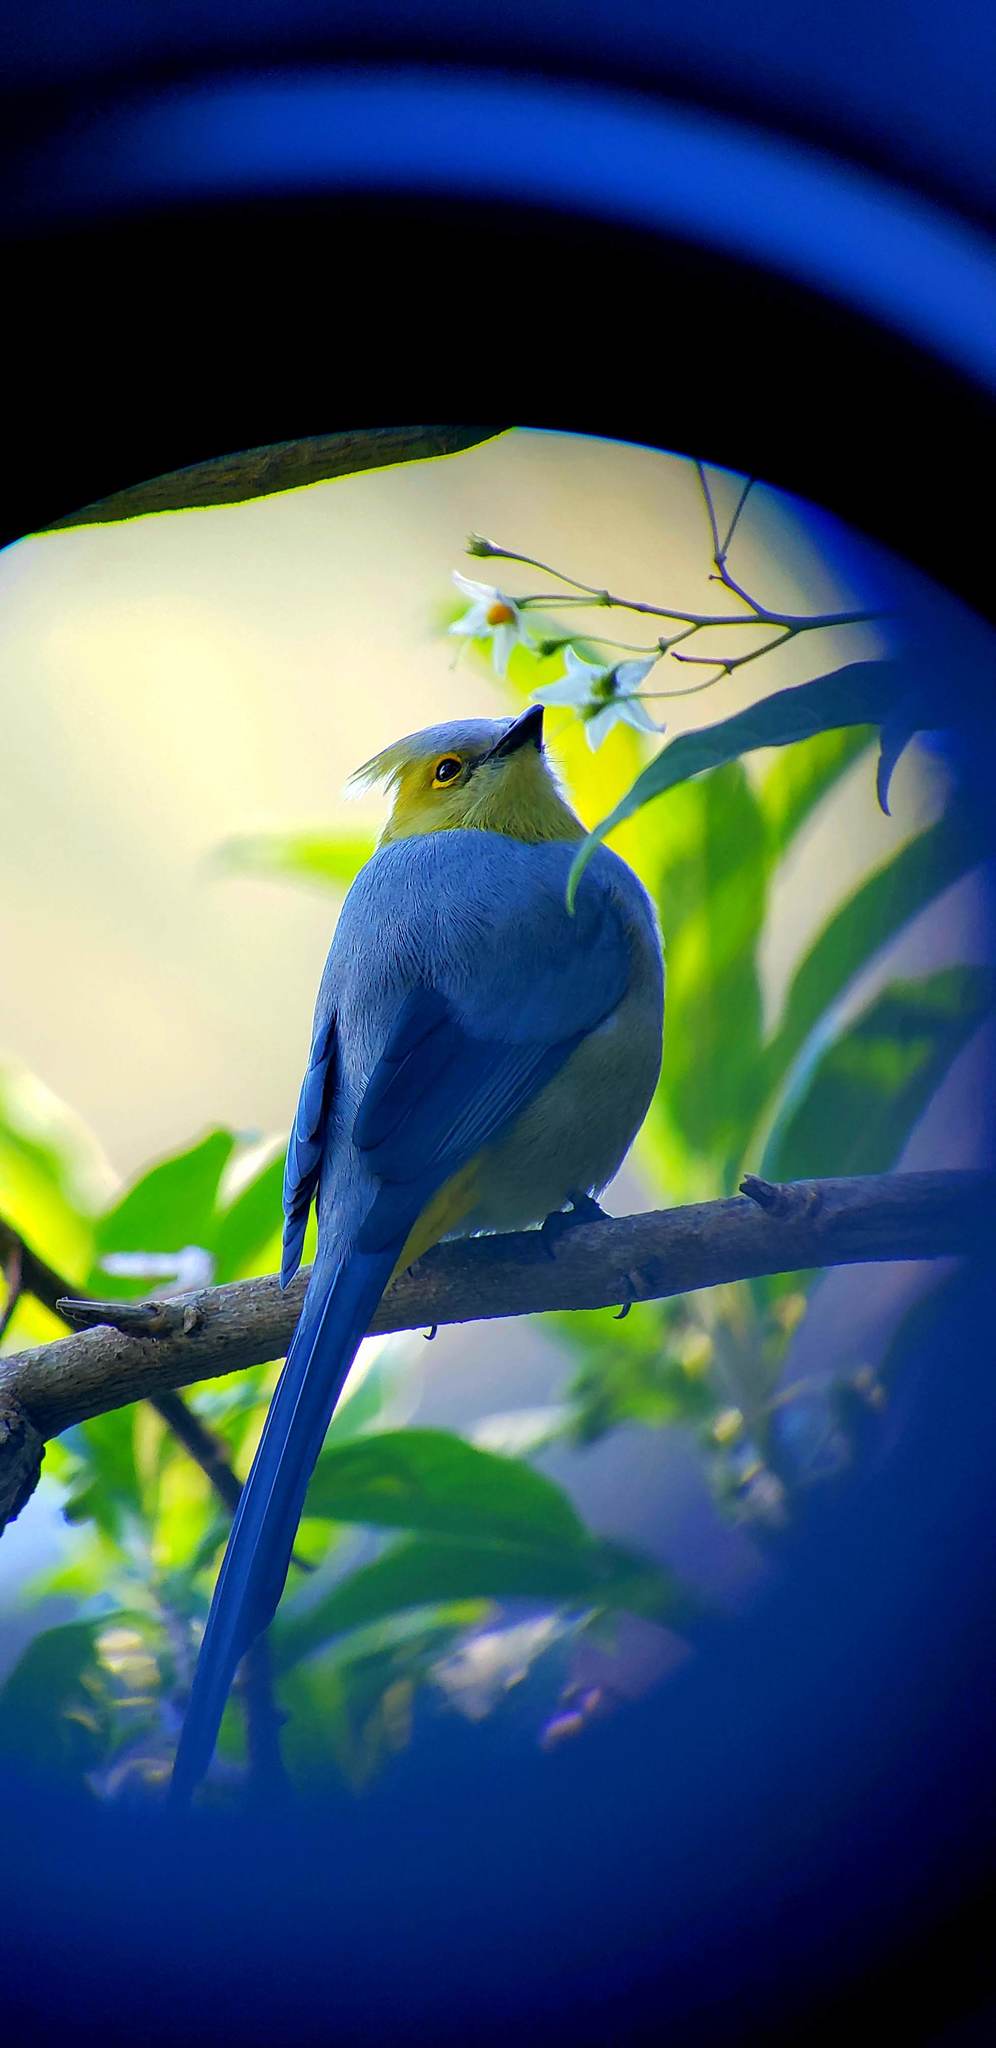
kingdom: Animalia
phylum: Chordata
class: Aves
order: Passeriformes
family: Ptilogonatidae
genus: Ptilogonys
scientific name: Ptilogonys caudatus
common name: Long-tailed silky-flycatcher
